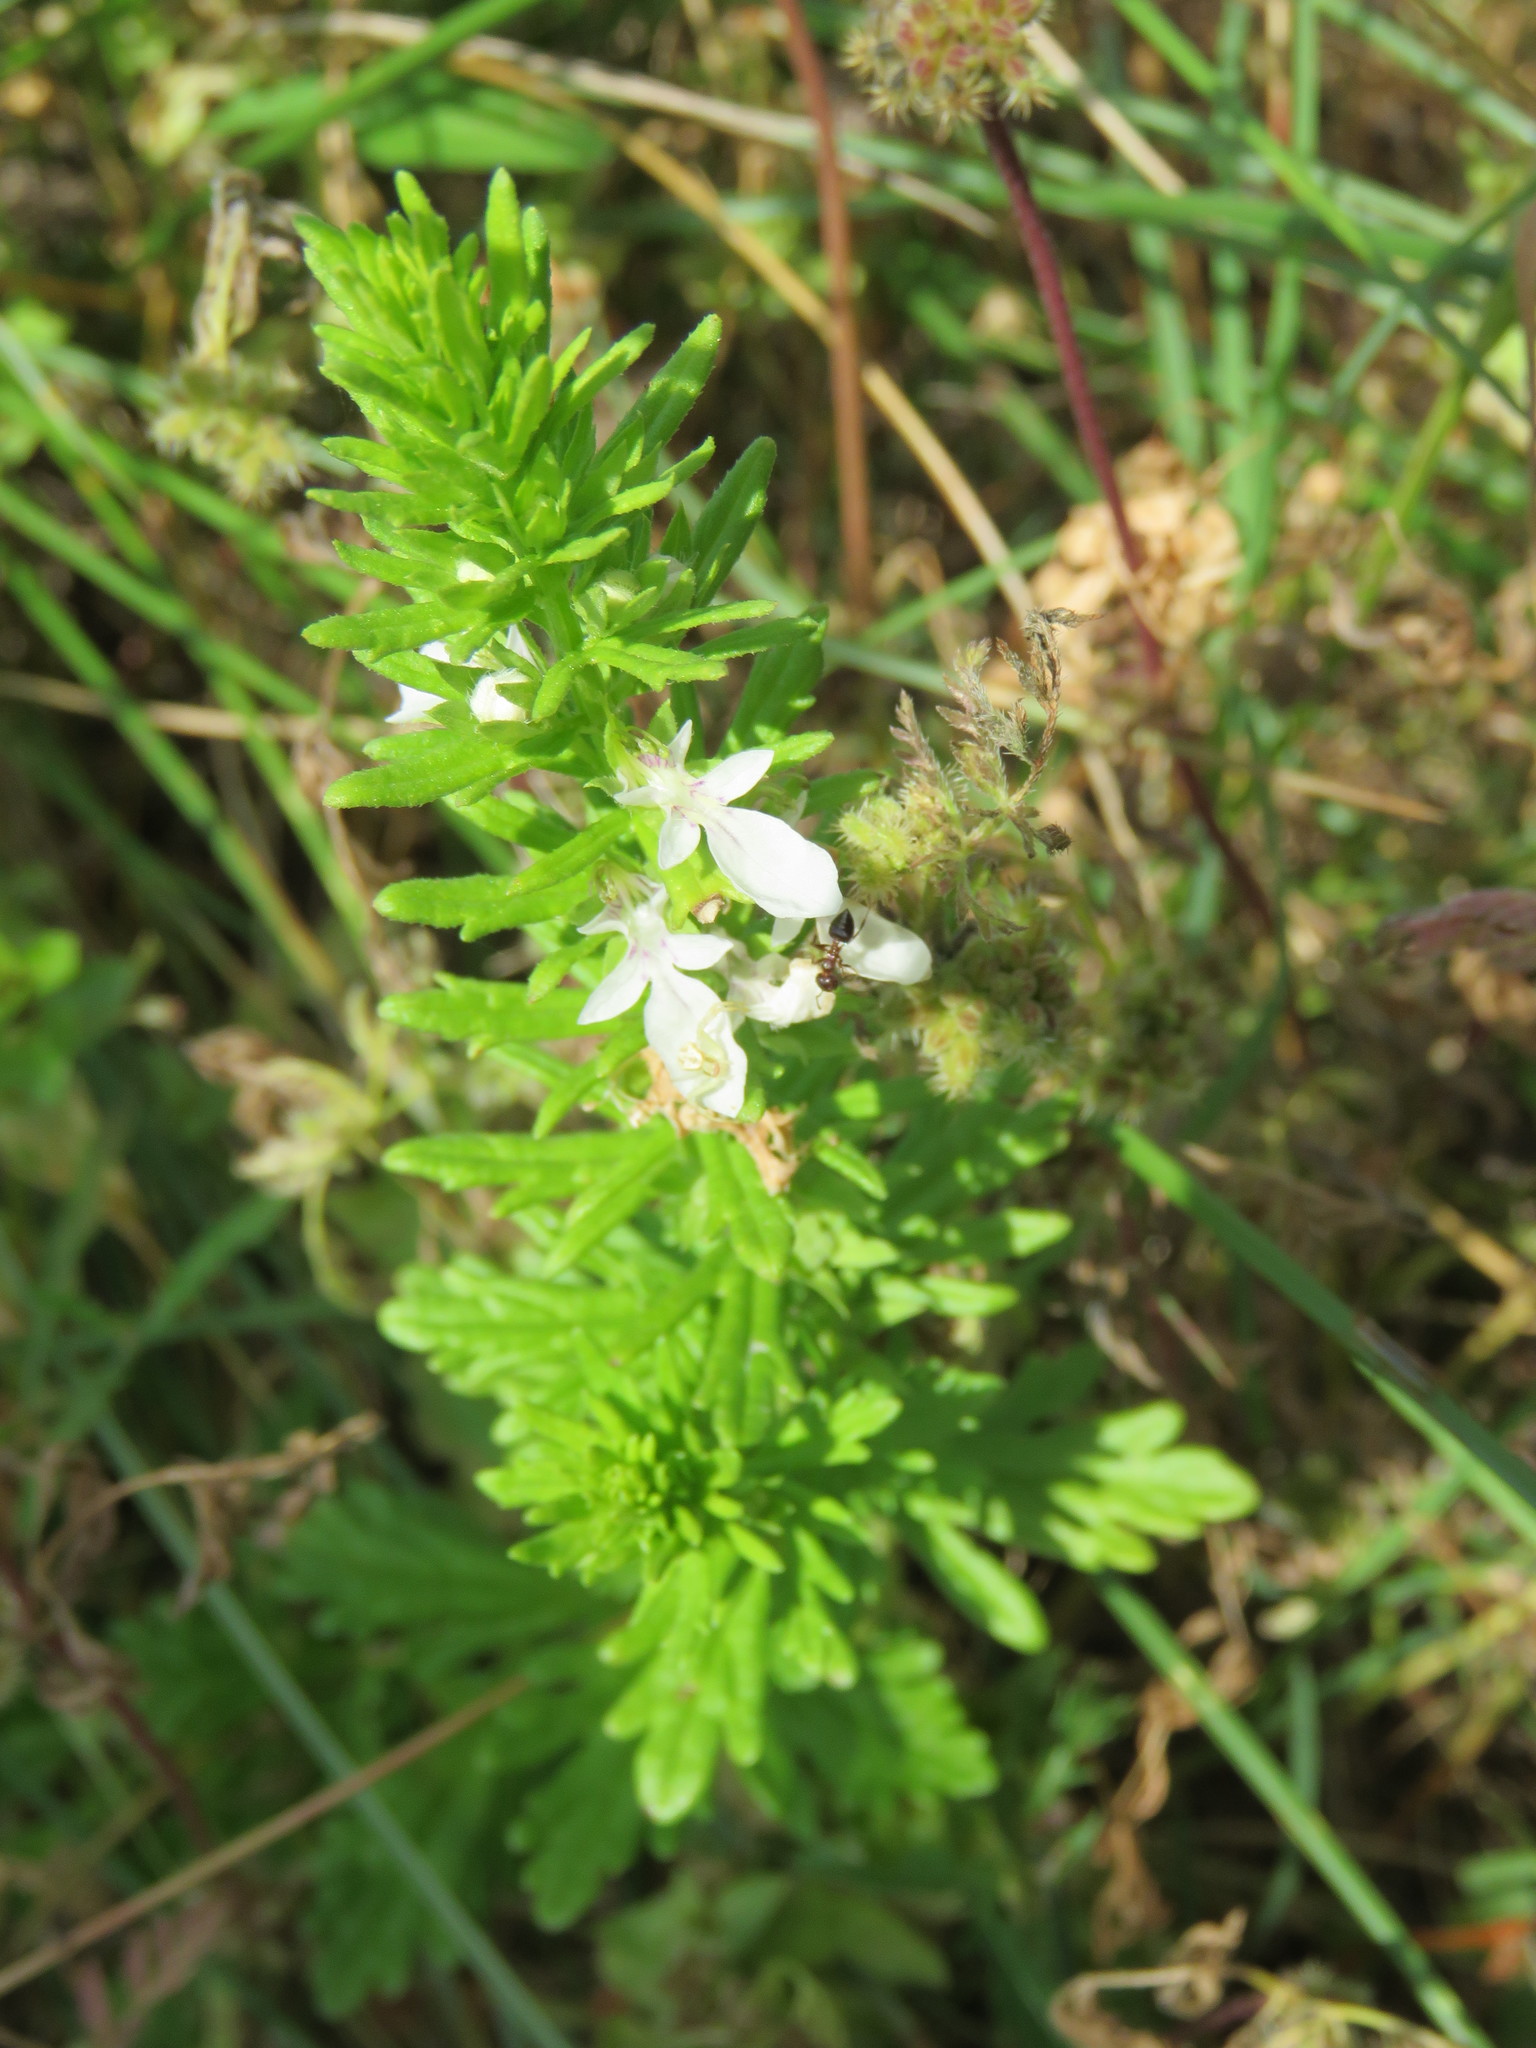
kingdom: Plantae
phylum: Tracheophyta
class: Magnoliopsida
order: Lamiales
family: Lamiaceae
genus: Teucrium
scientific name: Teucrium cubense
